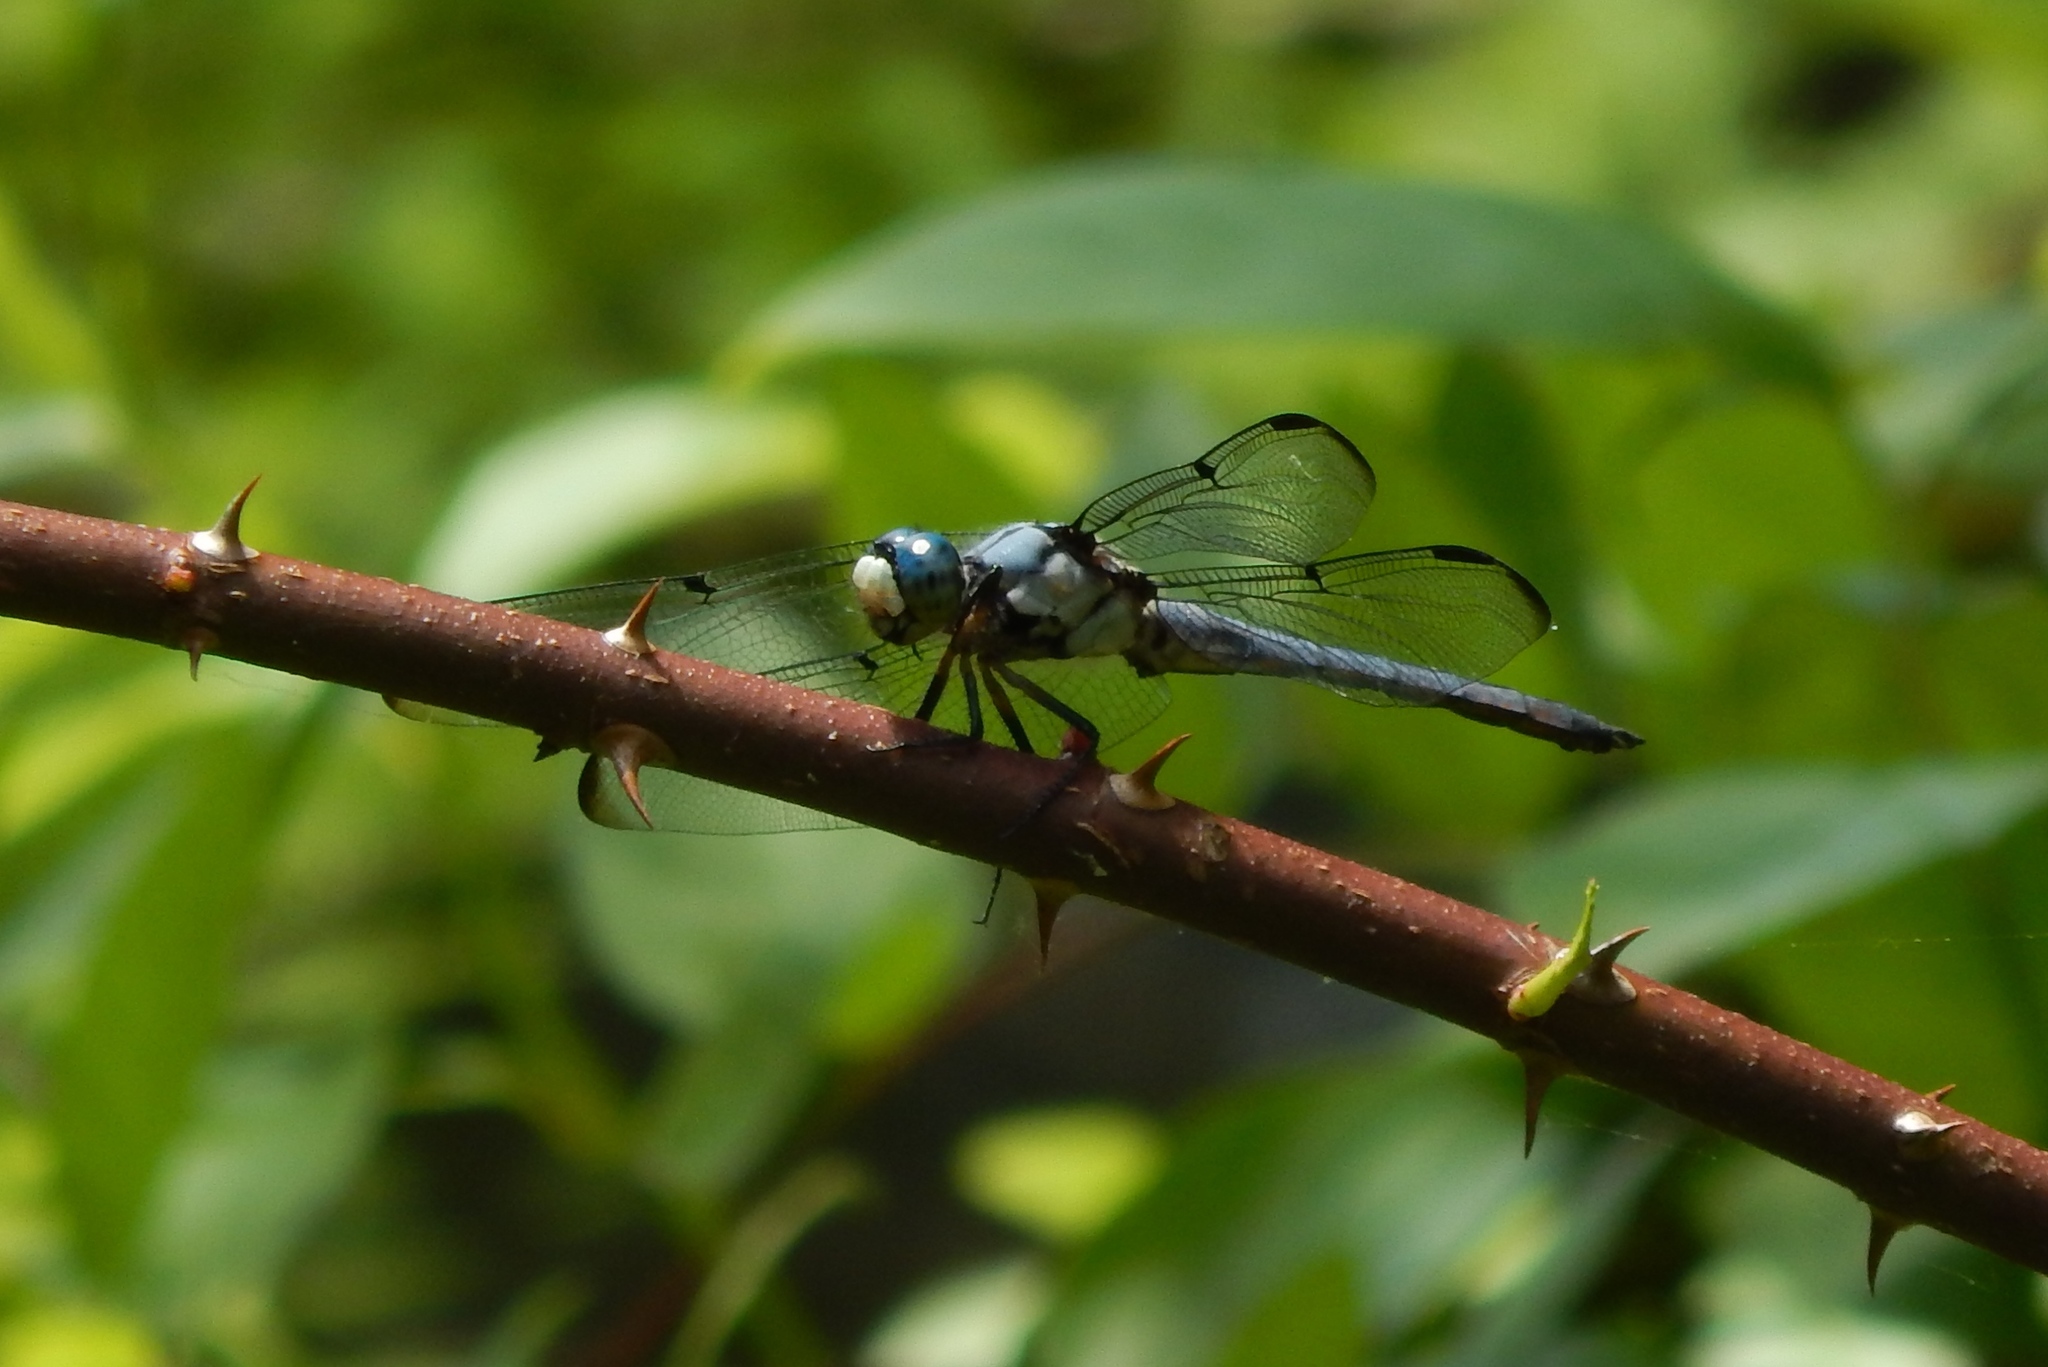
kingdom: Animalia
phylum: Arthropoda
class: Insecta
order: Odonata
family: Libellulidae
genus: Libellula
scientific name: Libellula vibrans
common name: Great blue skimmer
